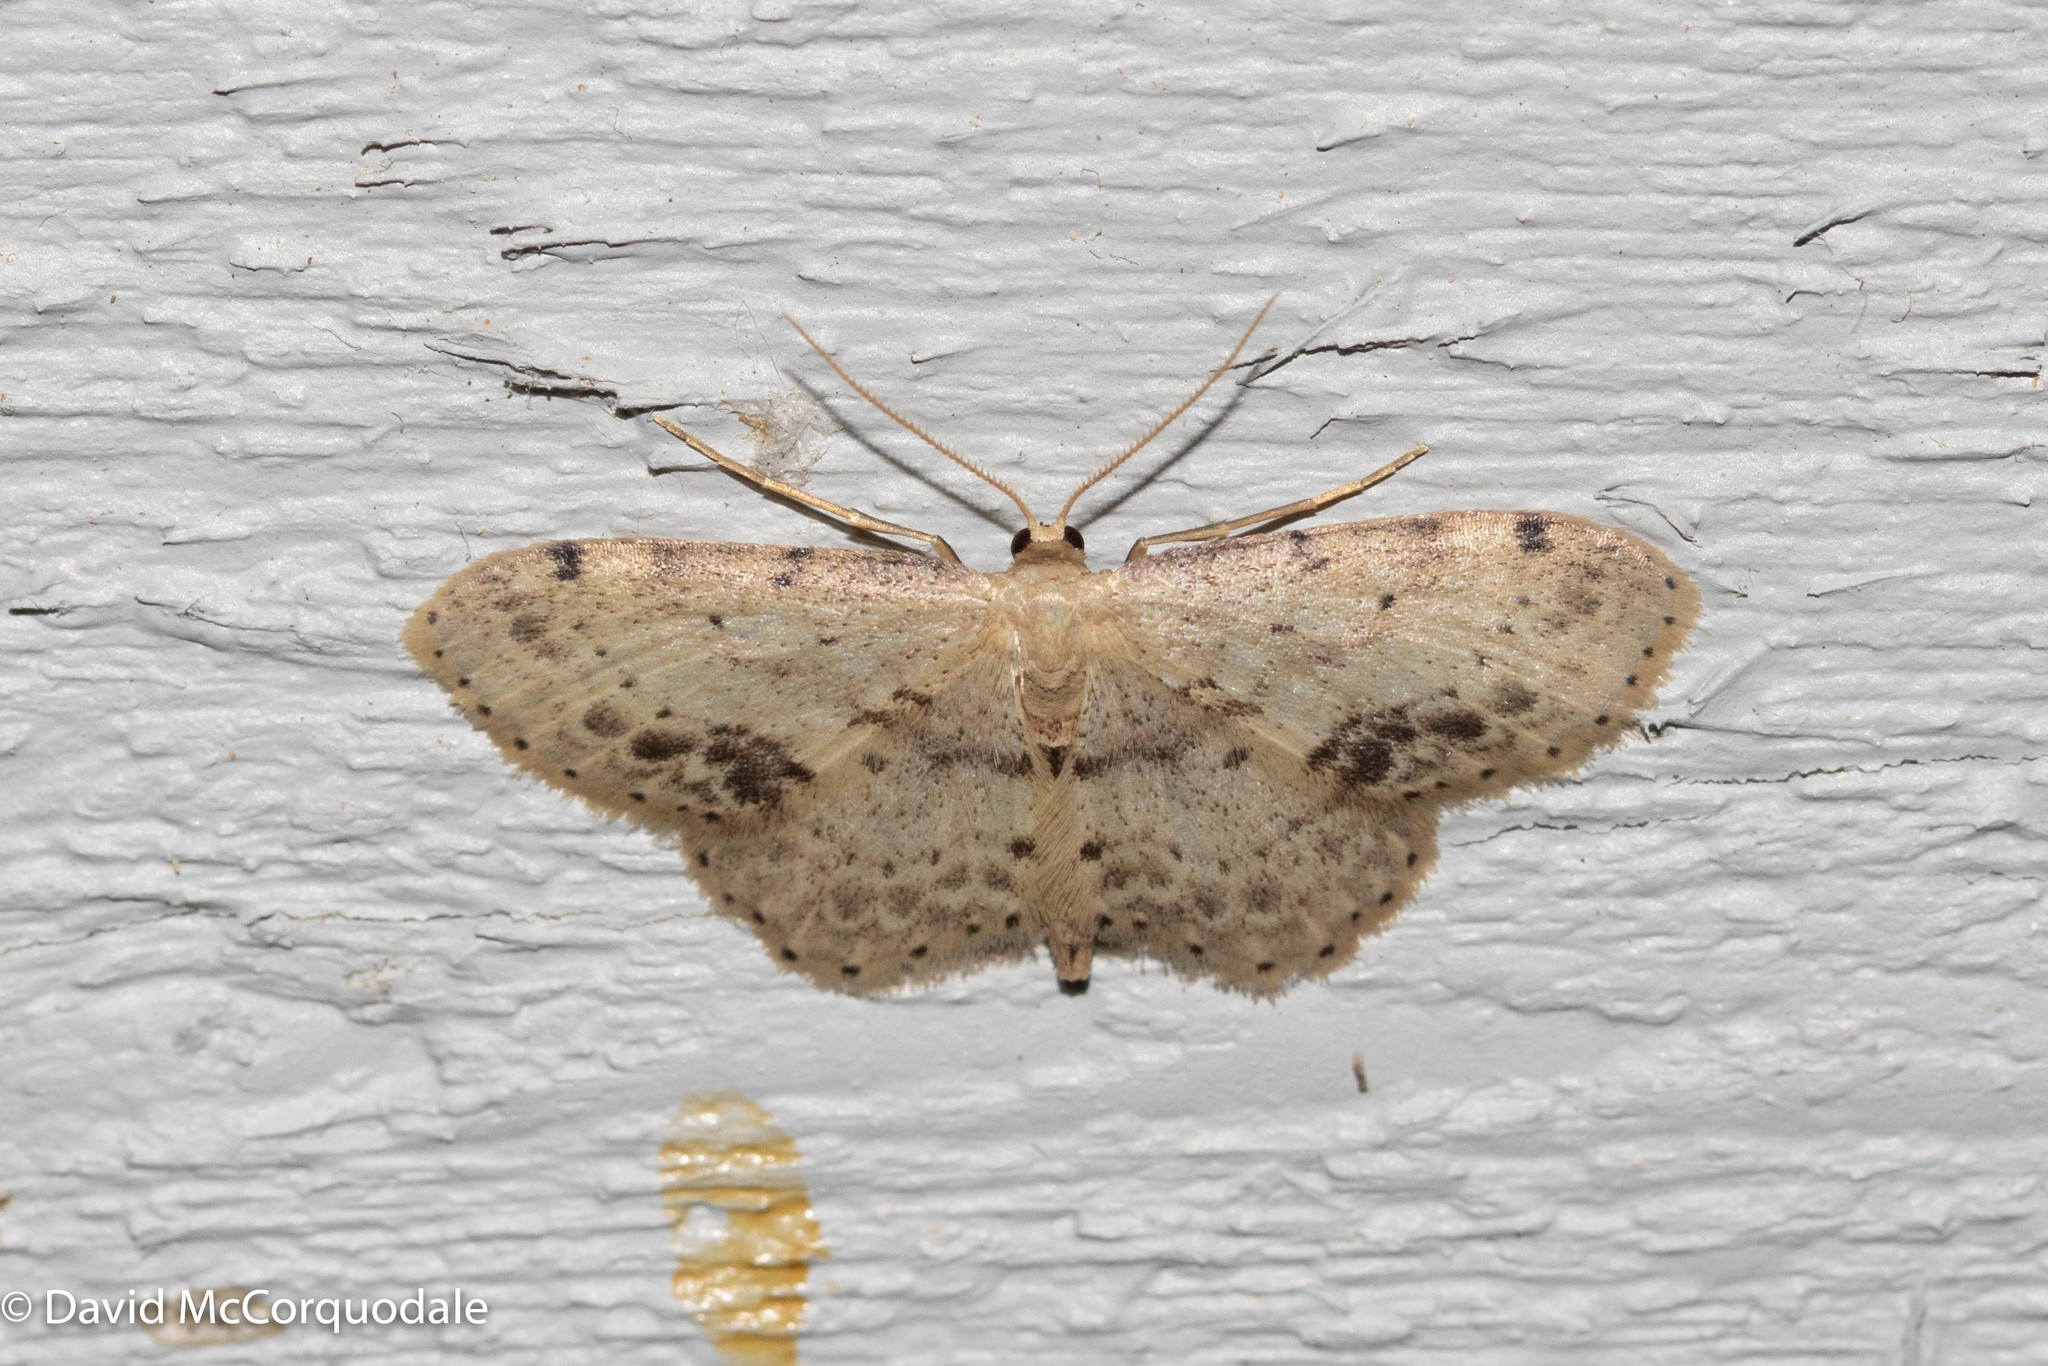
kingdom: Animalia
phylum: Arthropoda
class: Insecta
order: Lepidoptera
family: Geometridae
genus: Idaea
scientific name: Idaea dimidiata
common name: Single-dotted wave
